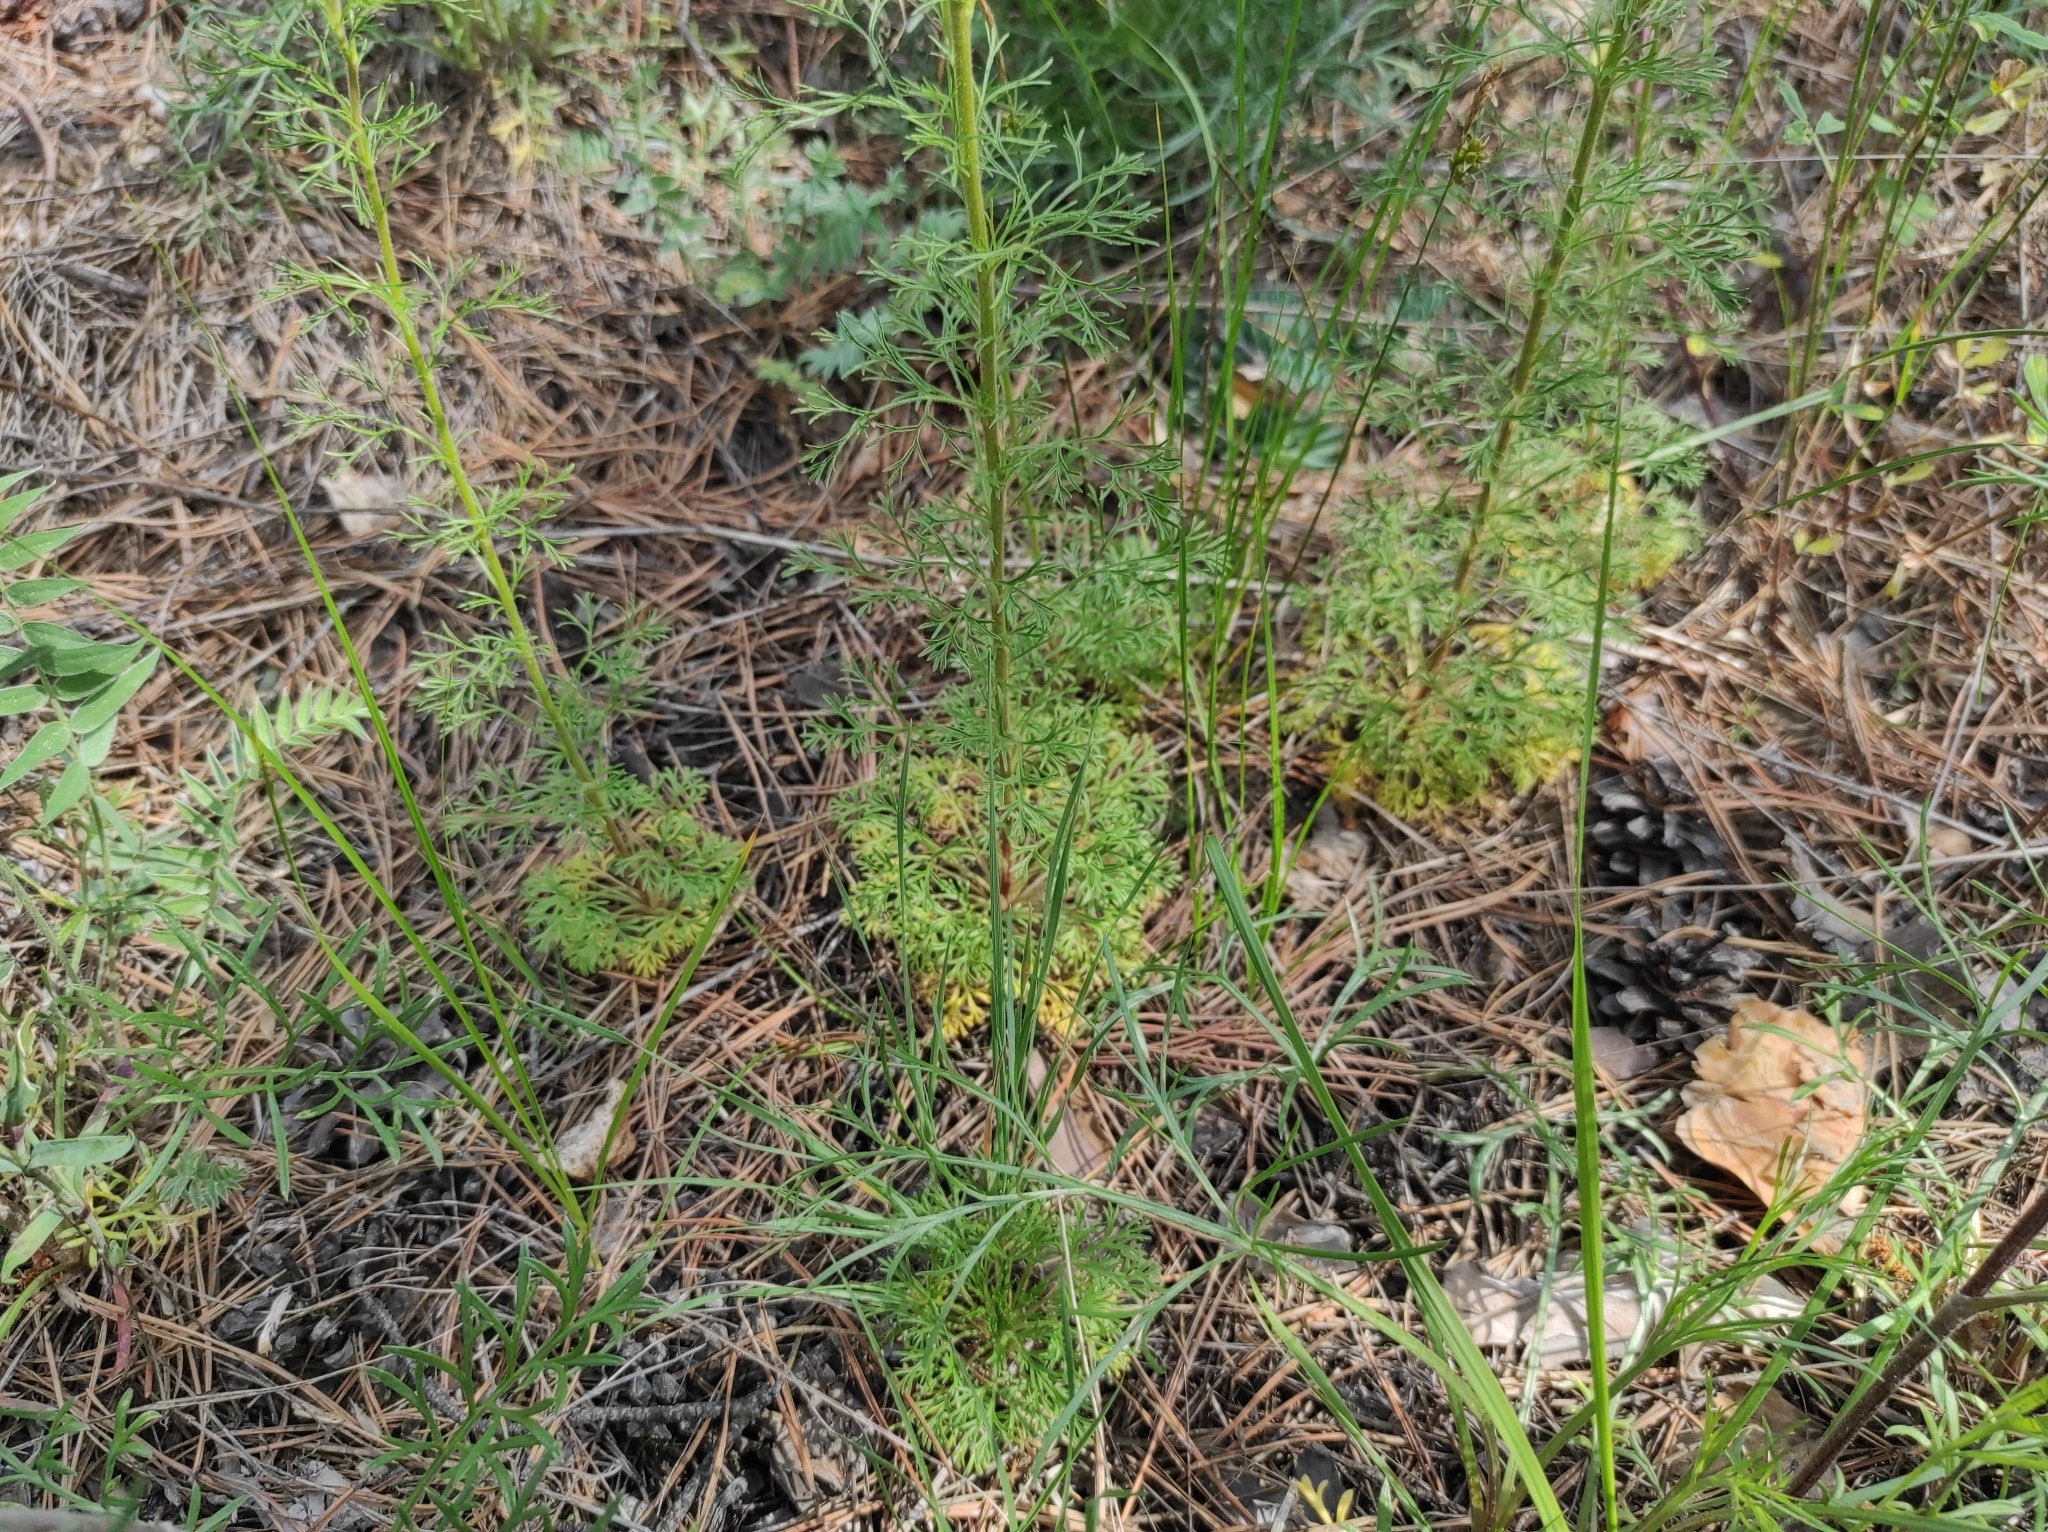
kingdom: Plantae
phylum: Tracheophyta
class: Magnoliopsida
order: Rosales
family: Rosaceae
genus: Chamaerhodos
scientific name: Chamaerhodos erecta
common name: American chamaerhodos
